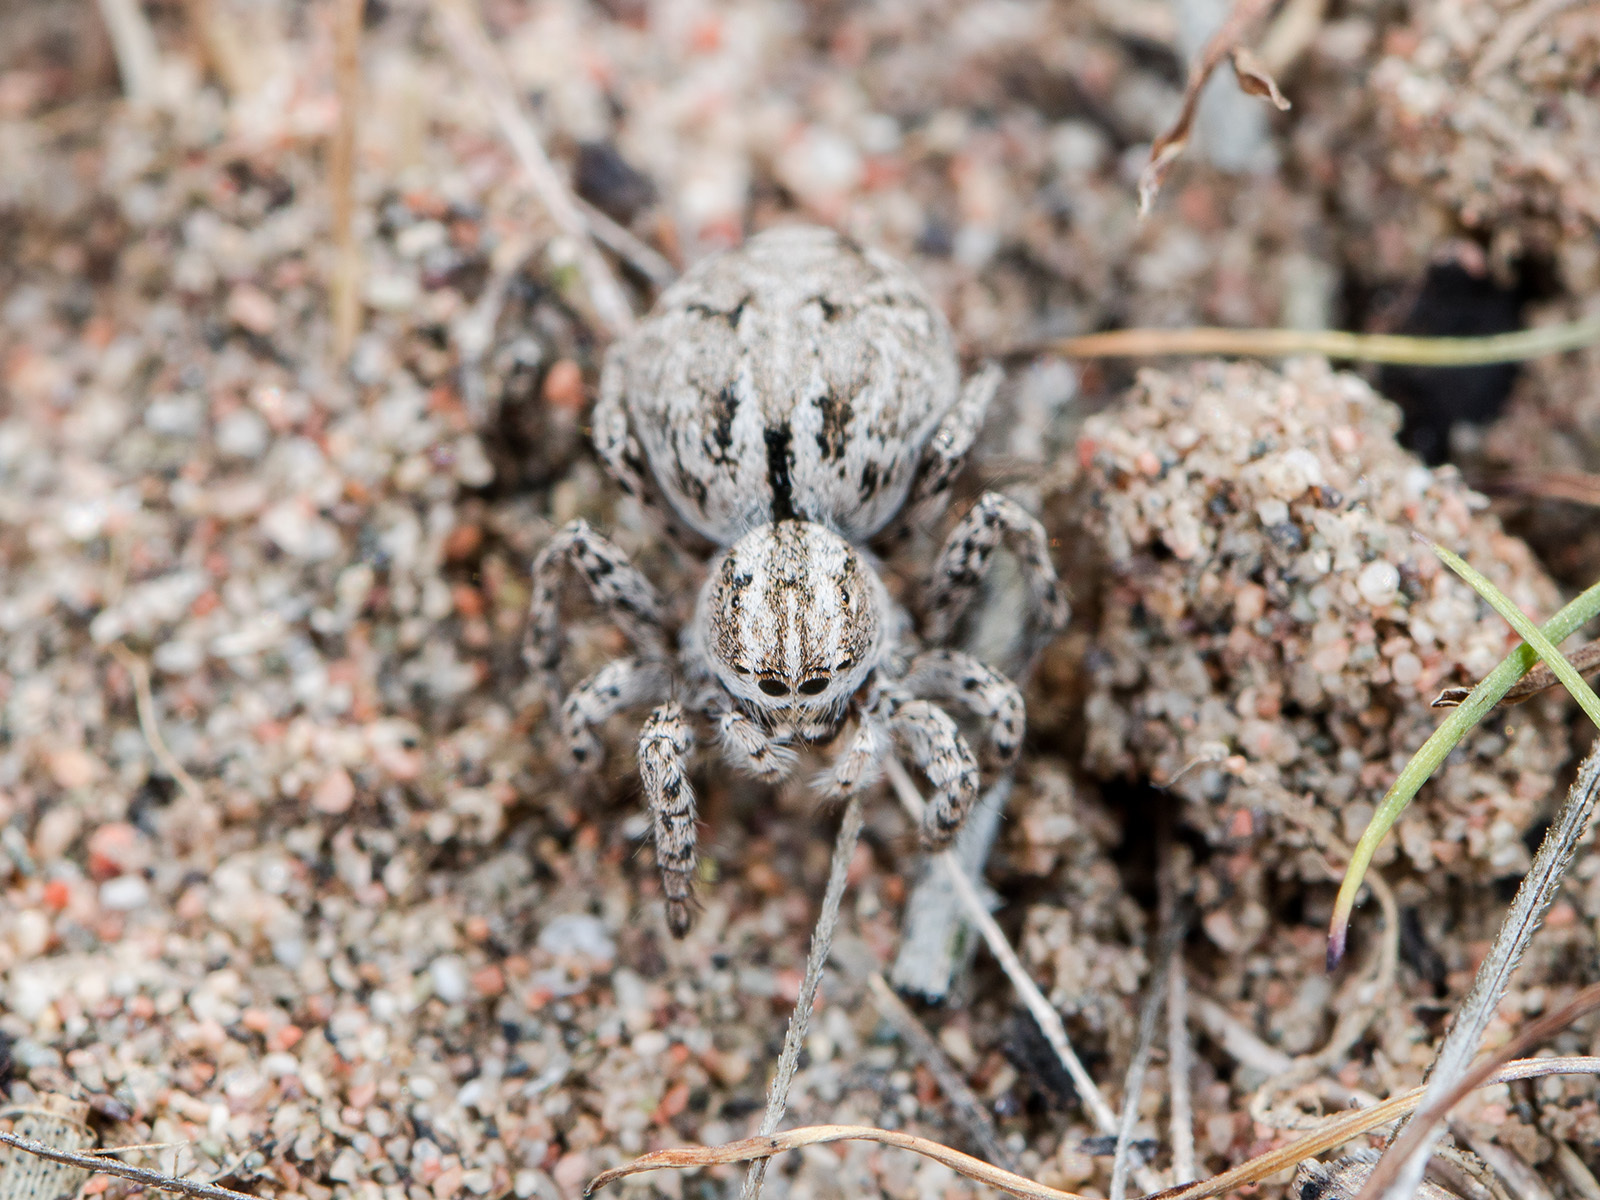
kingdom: Animalia
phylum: Arthropoda
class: Arachnida
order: Araneae
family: Salticidae
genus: Aelurillus
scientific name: Aelurillus m-nigrum
